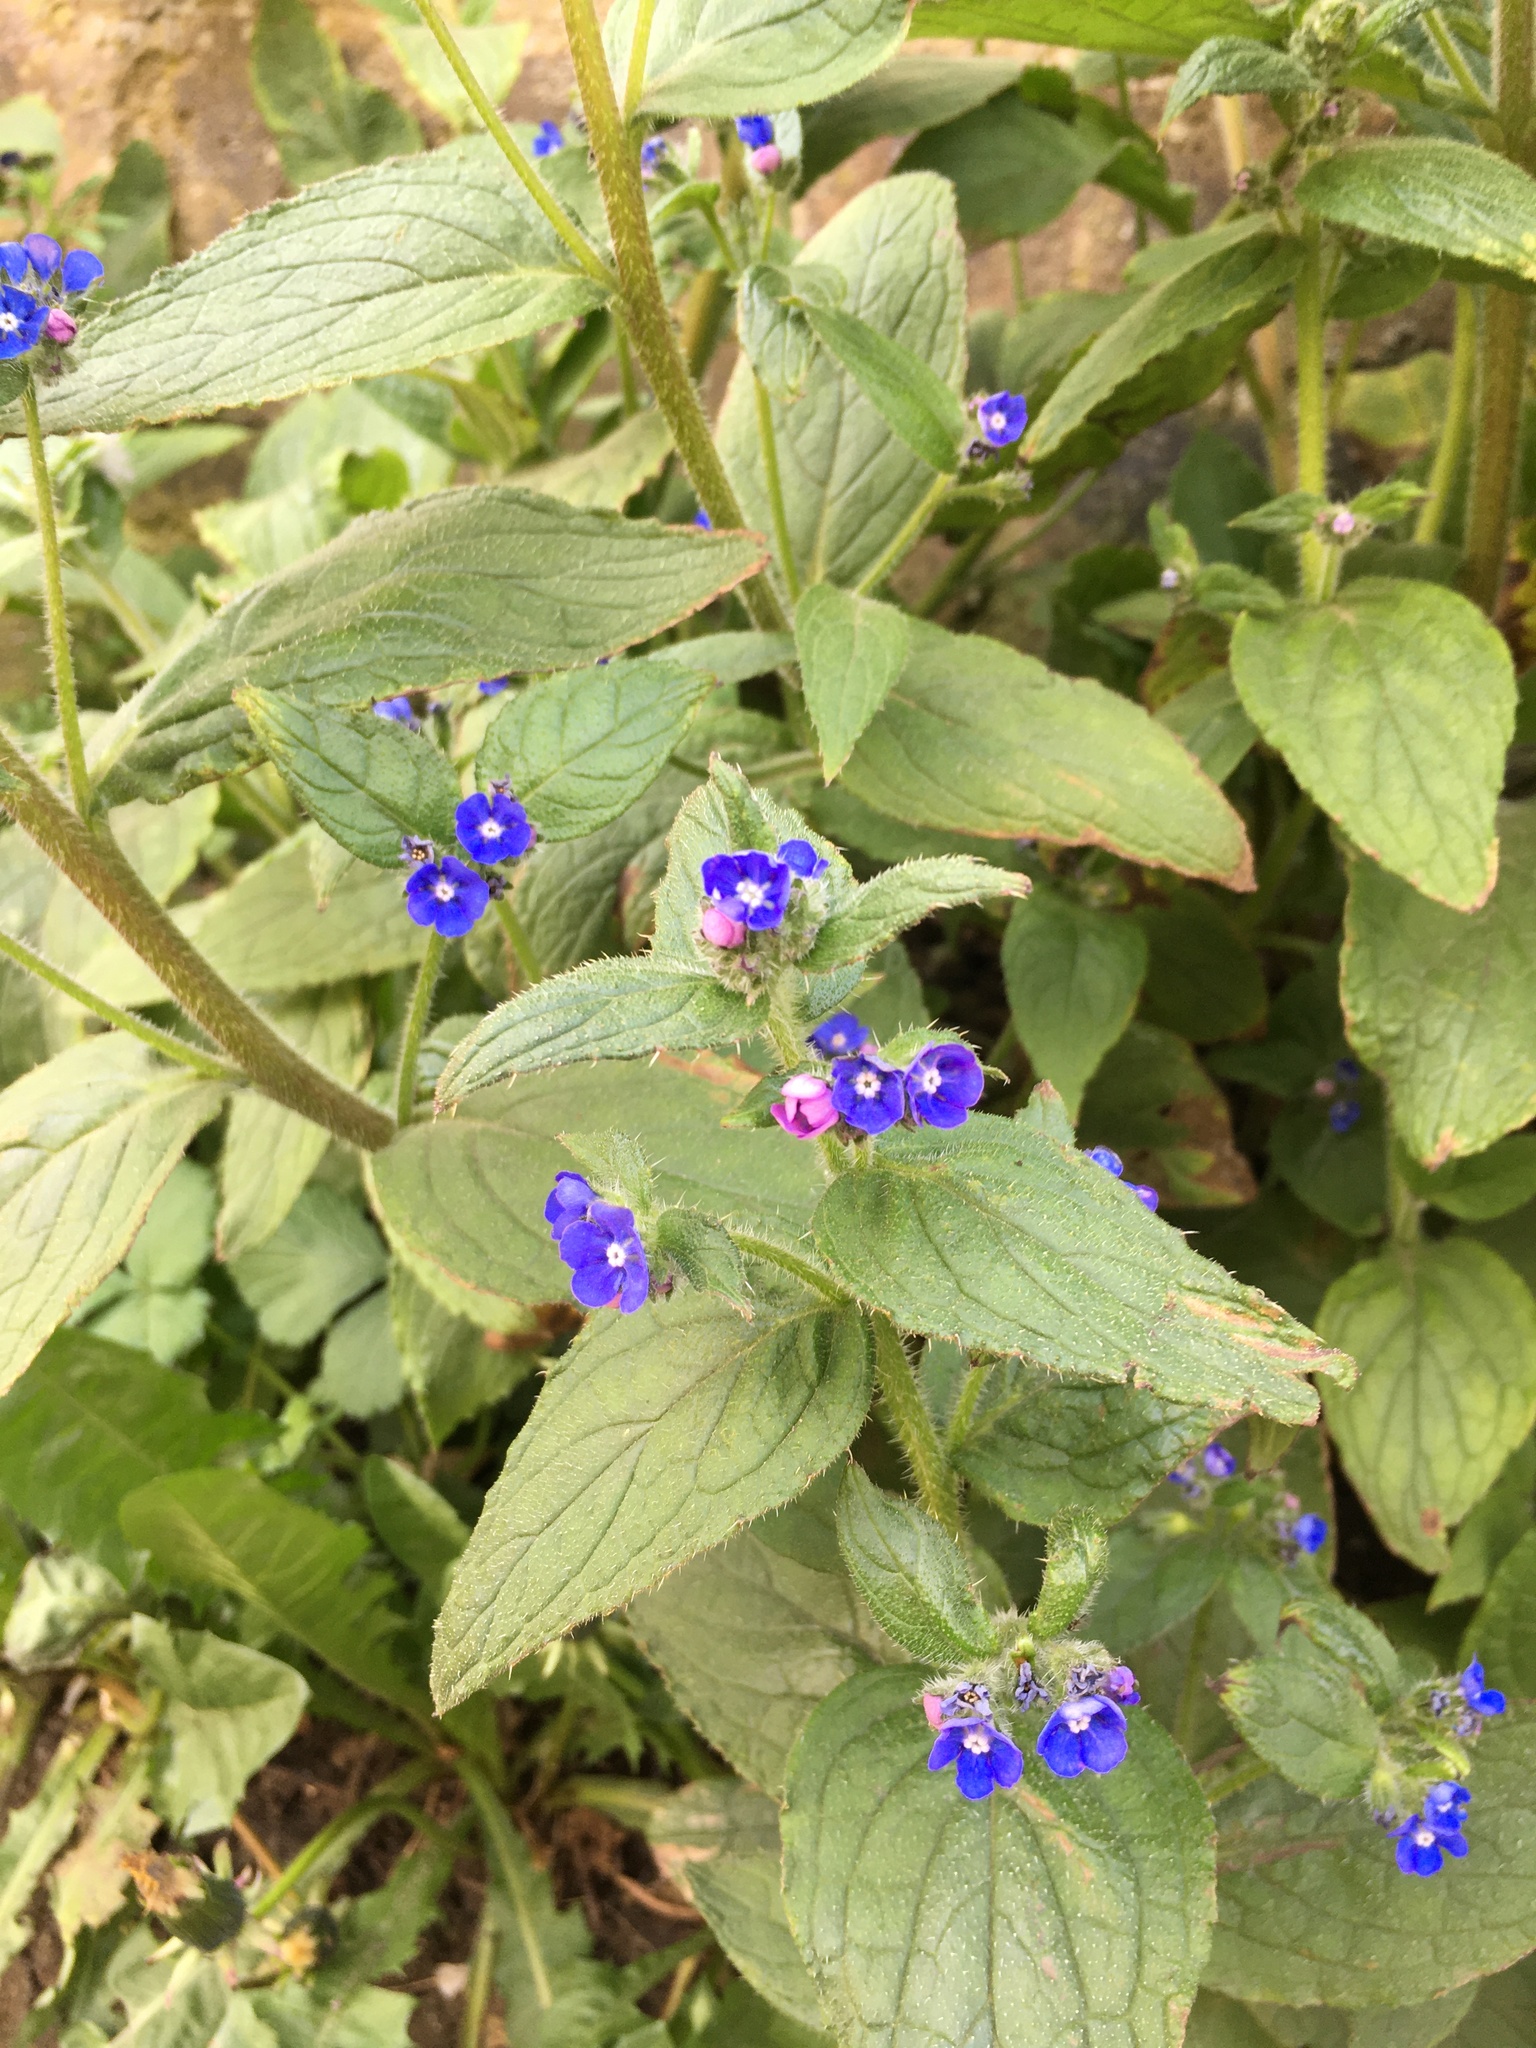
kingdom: Plantae
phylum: Tracheophyta
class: Magnoliopsida
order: Boraginales
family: Boraginaceae
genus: Pentaglottis
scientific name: Pentaglottis sempervirens
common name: Green alkanet
